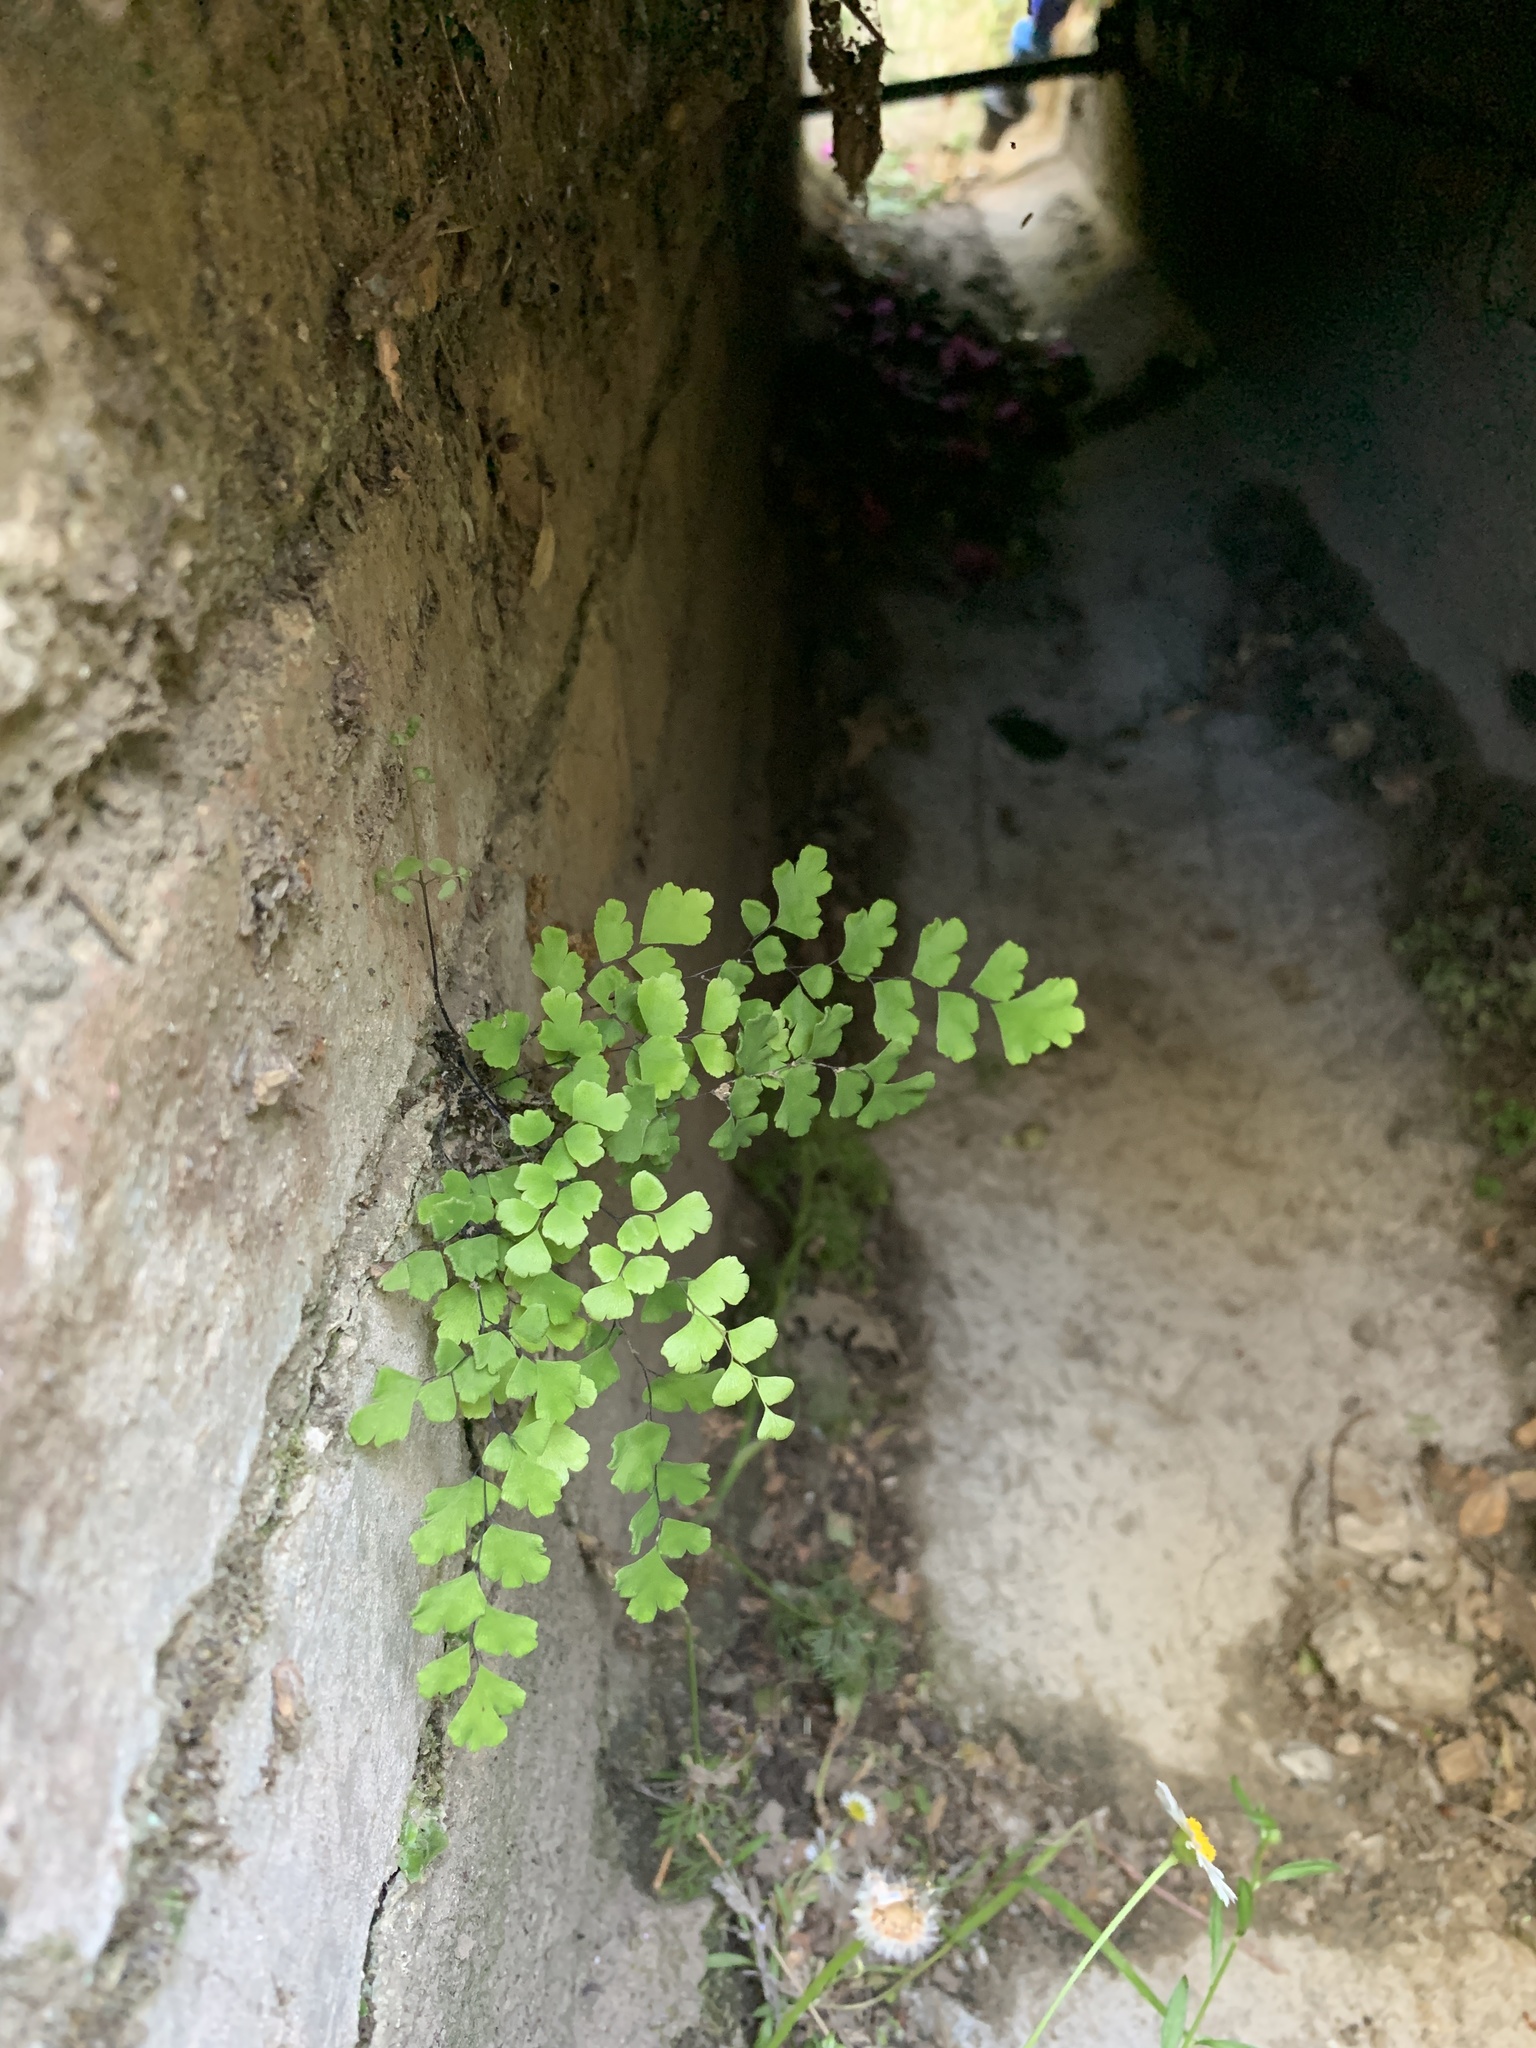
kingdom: Plantae
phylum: Tracheophyta
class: Polypodiopsida
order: Polypodiales
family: Pteridaceae
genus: Adiantum
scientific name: Adiantum capillus-veneris
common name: Maidenhair fern
